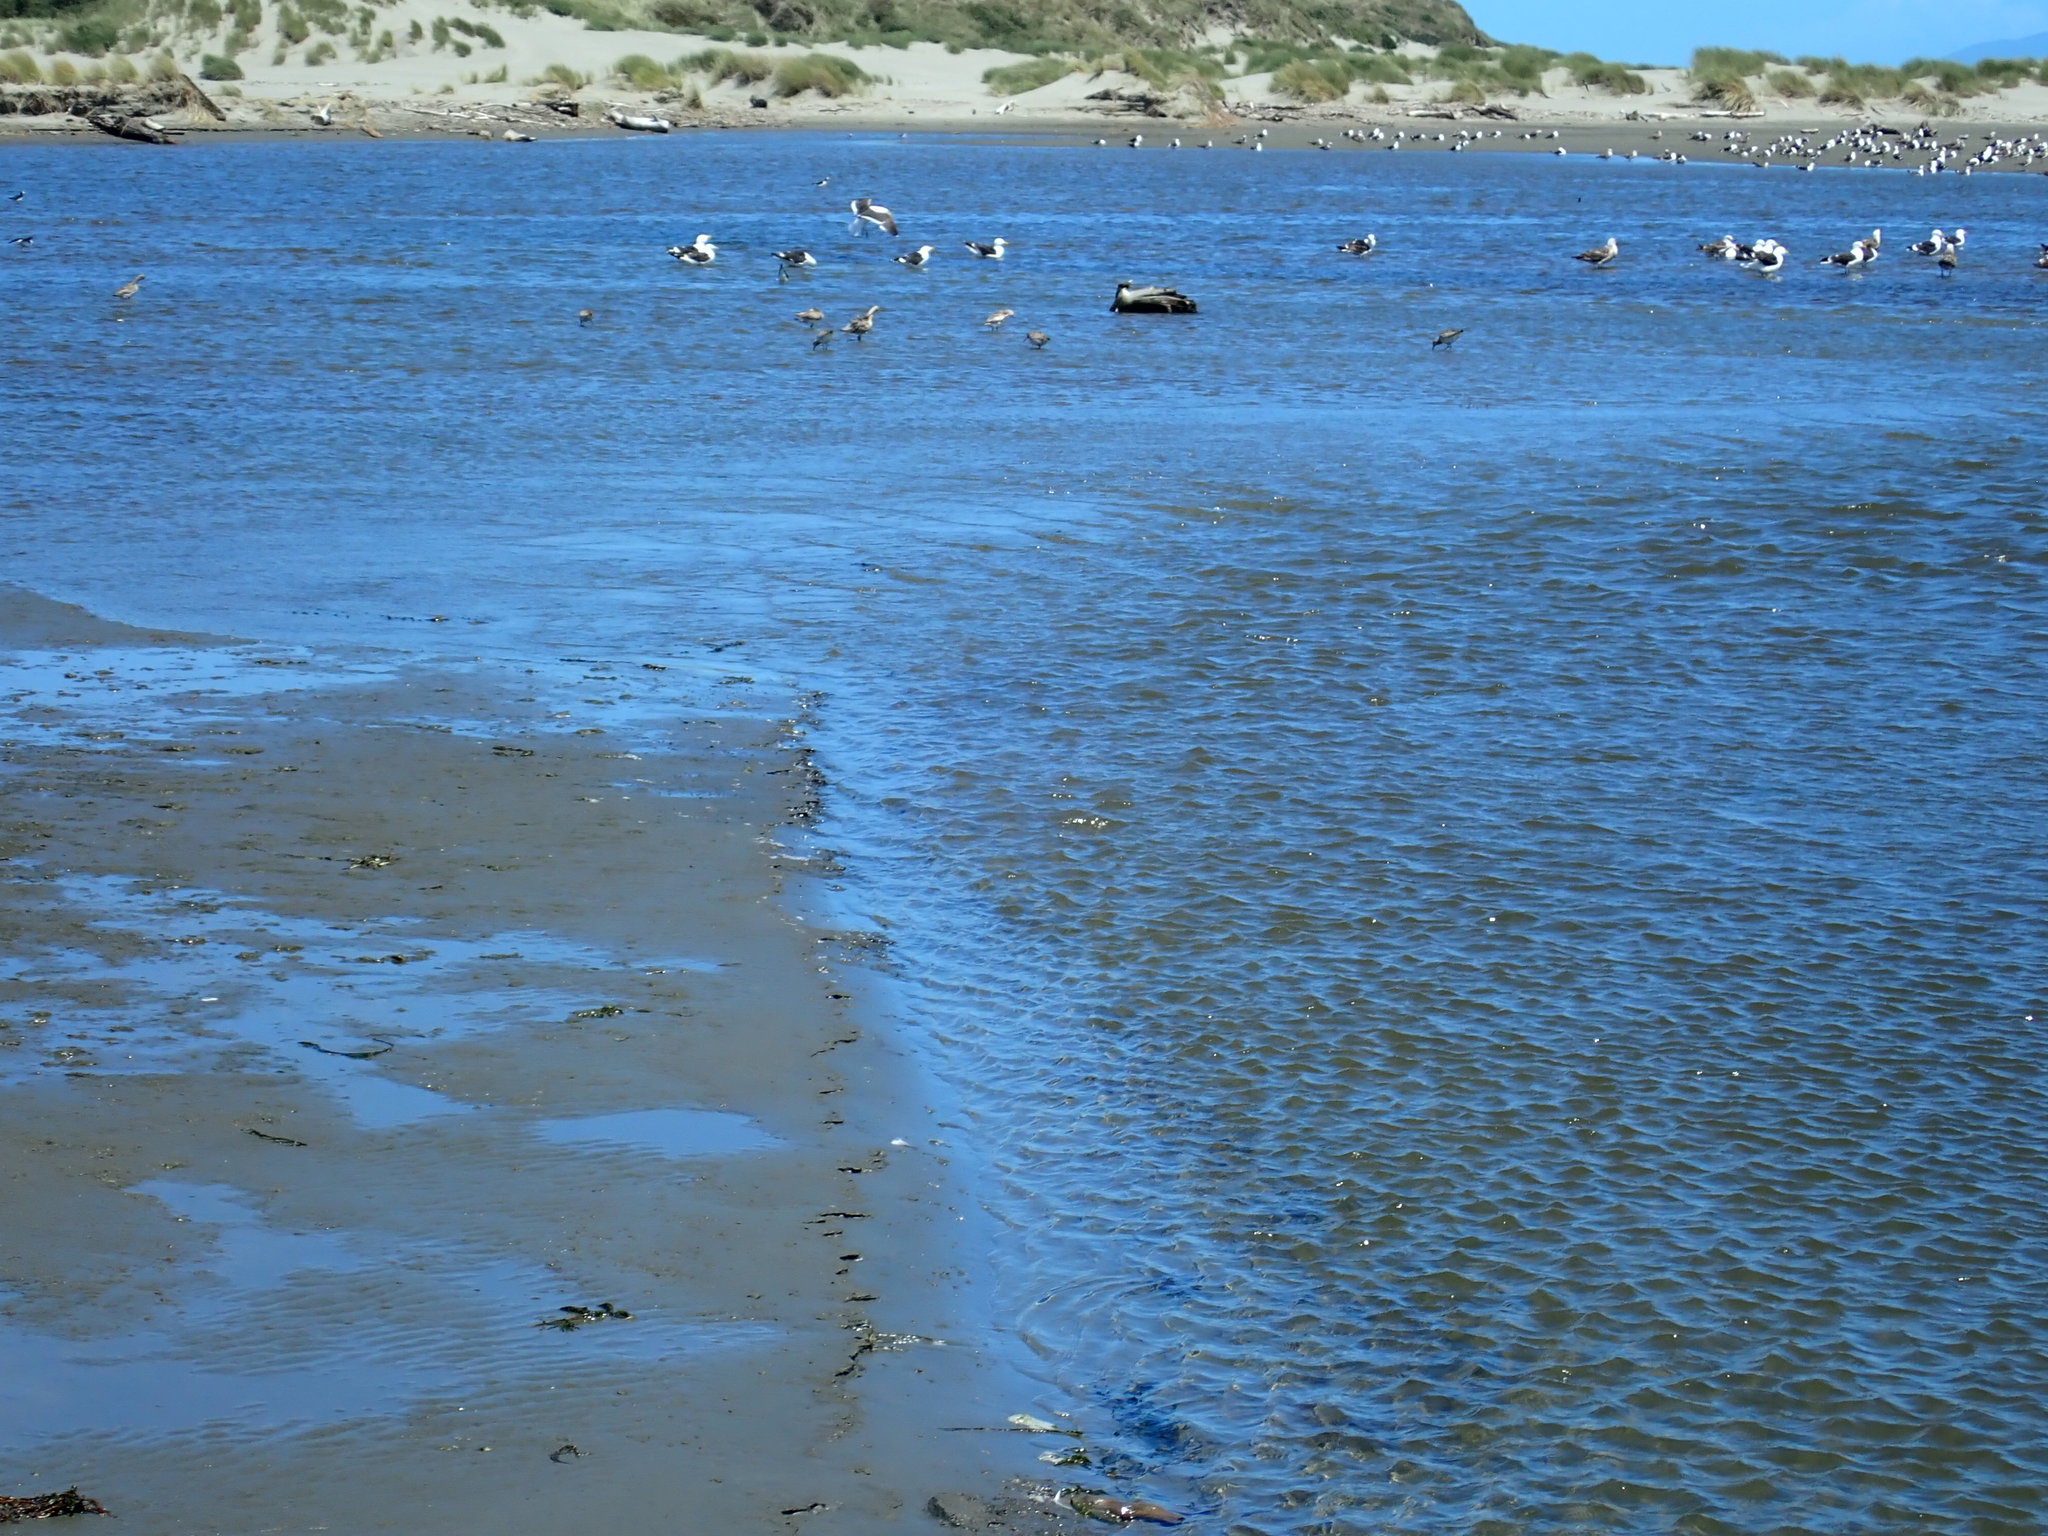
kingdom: Animalia
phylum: Chordata
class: Aves
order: Charadriiformes
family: Scolopacidae
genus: Limosa
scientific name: Limosa lapponica
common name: Bar-tailed godwit
